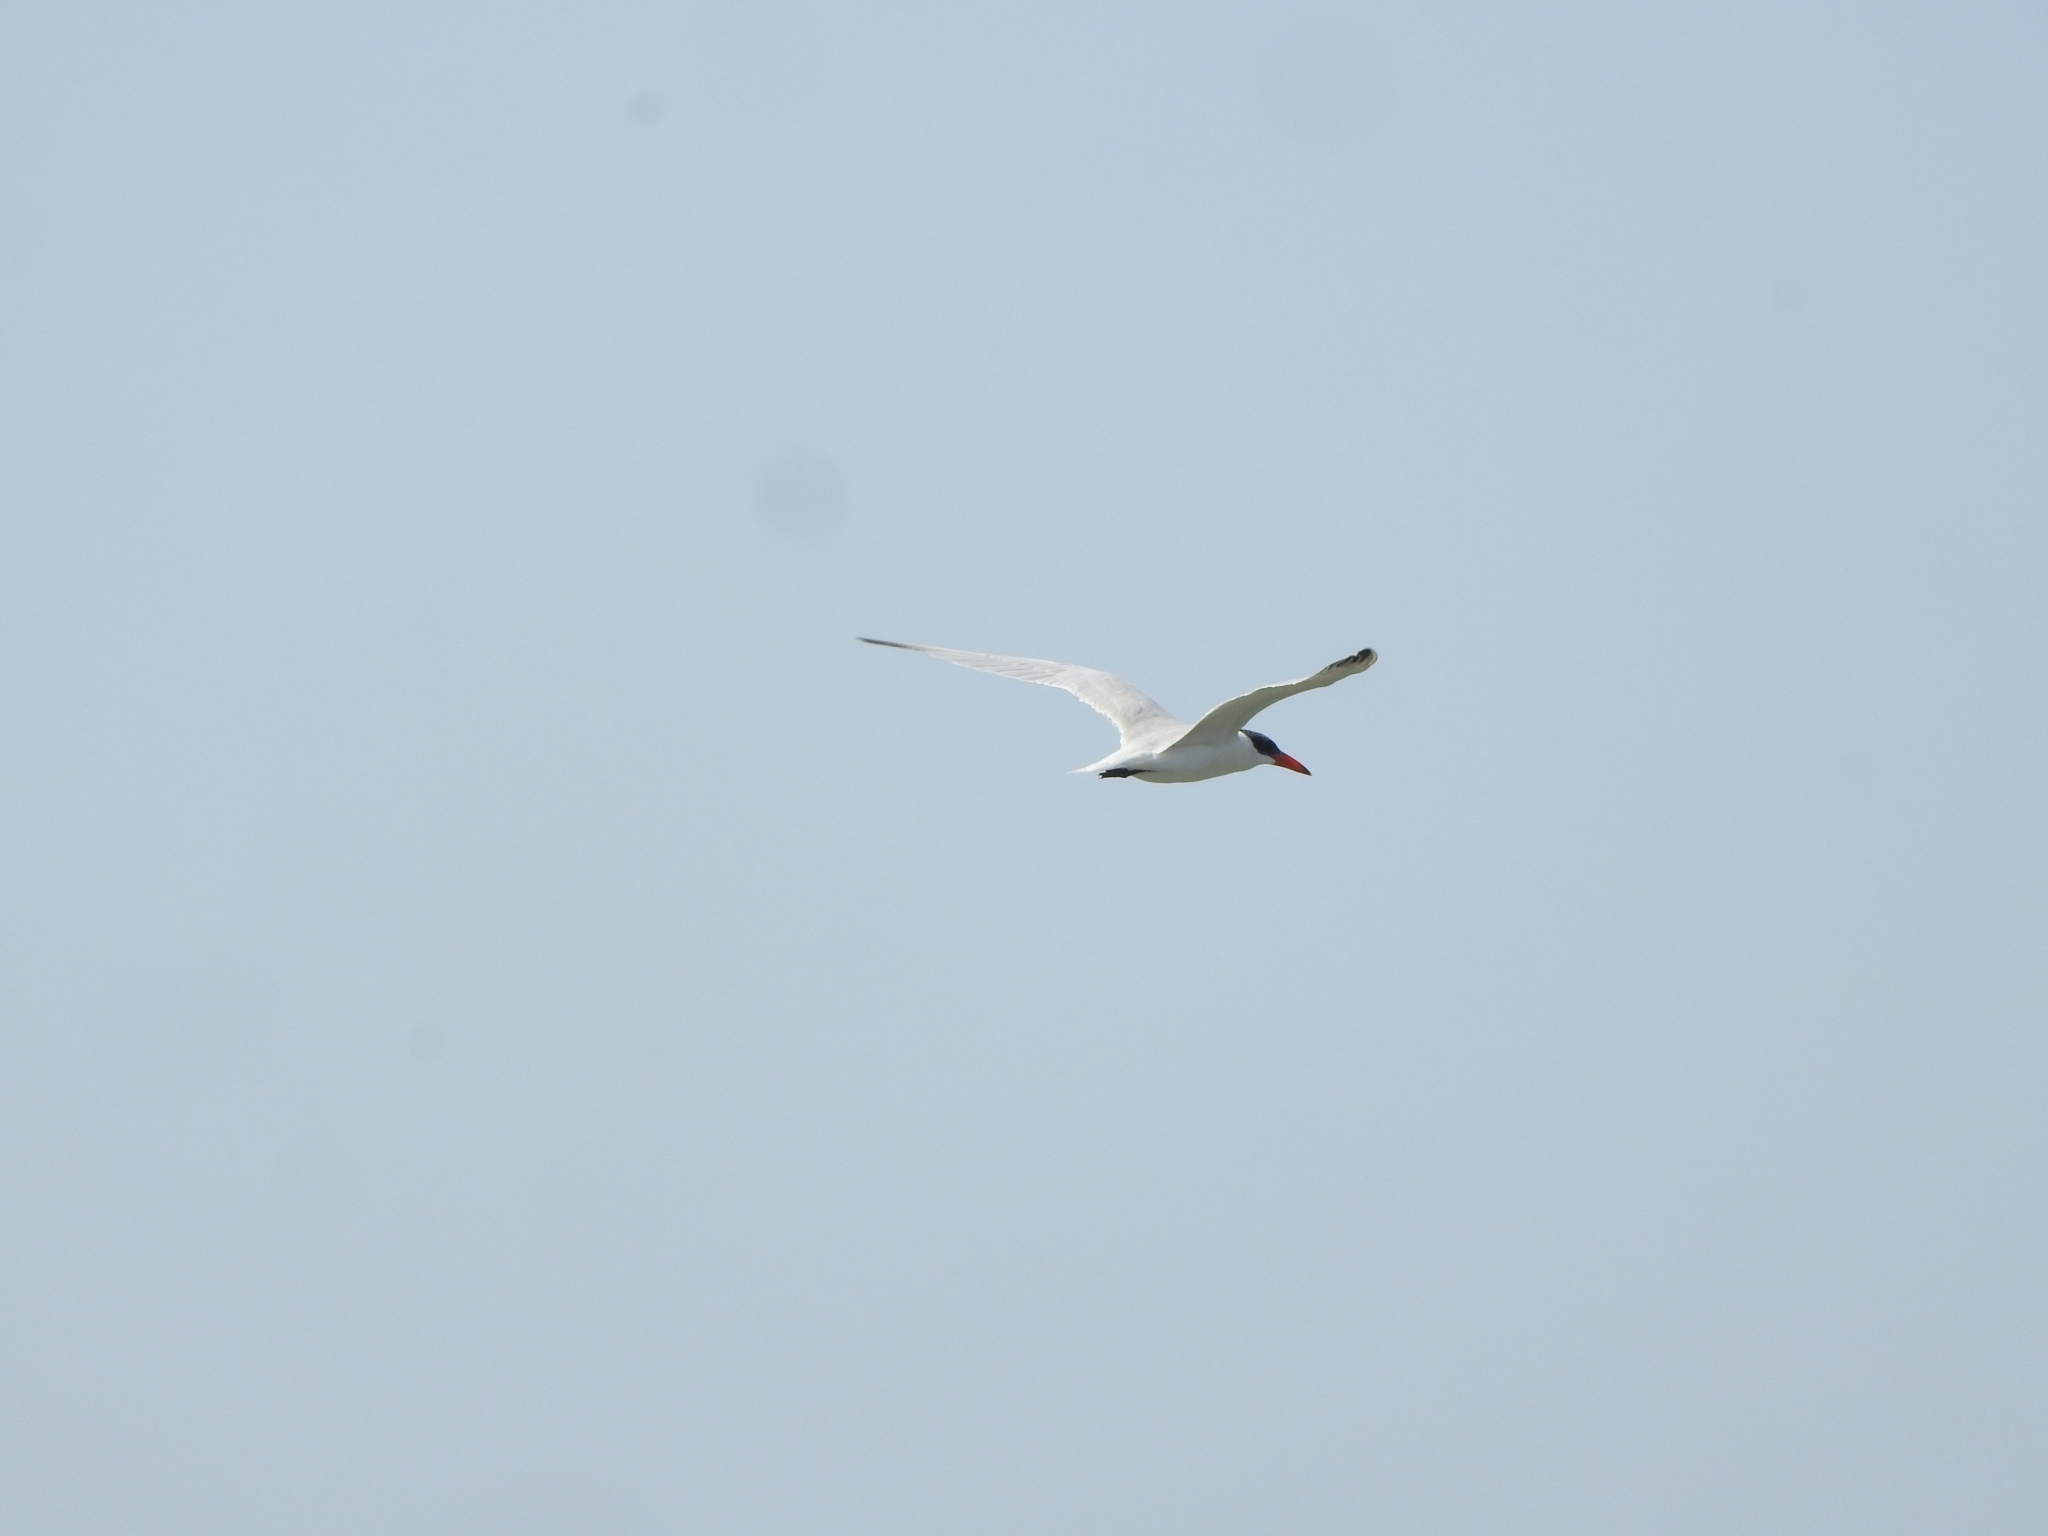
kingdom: Animalia
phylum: Chordata
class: Aves
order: Charadriiformes
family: Laridae
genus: Hydroprogne
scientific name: Hydroprogne caspia
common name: Caspian tern
